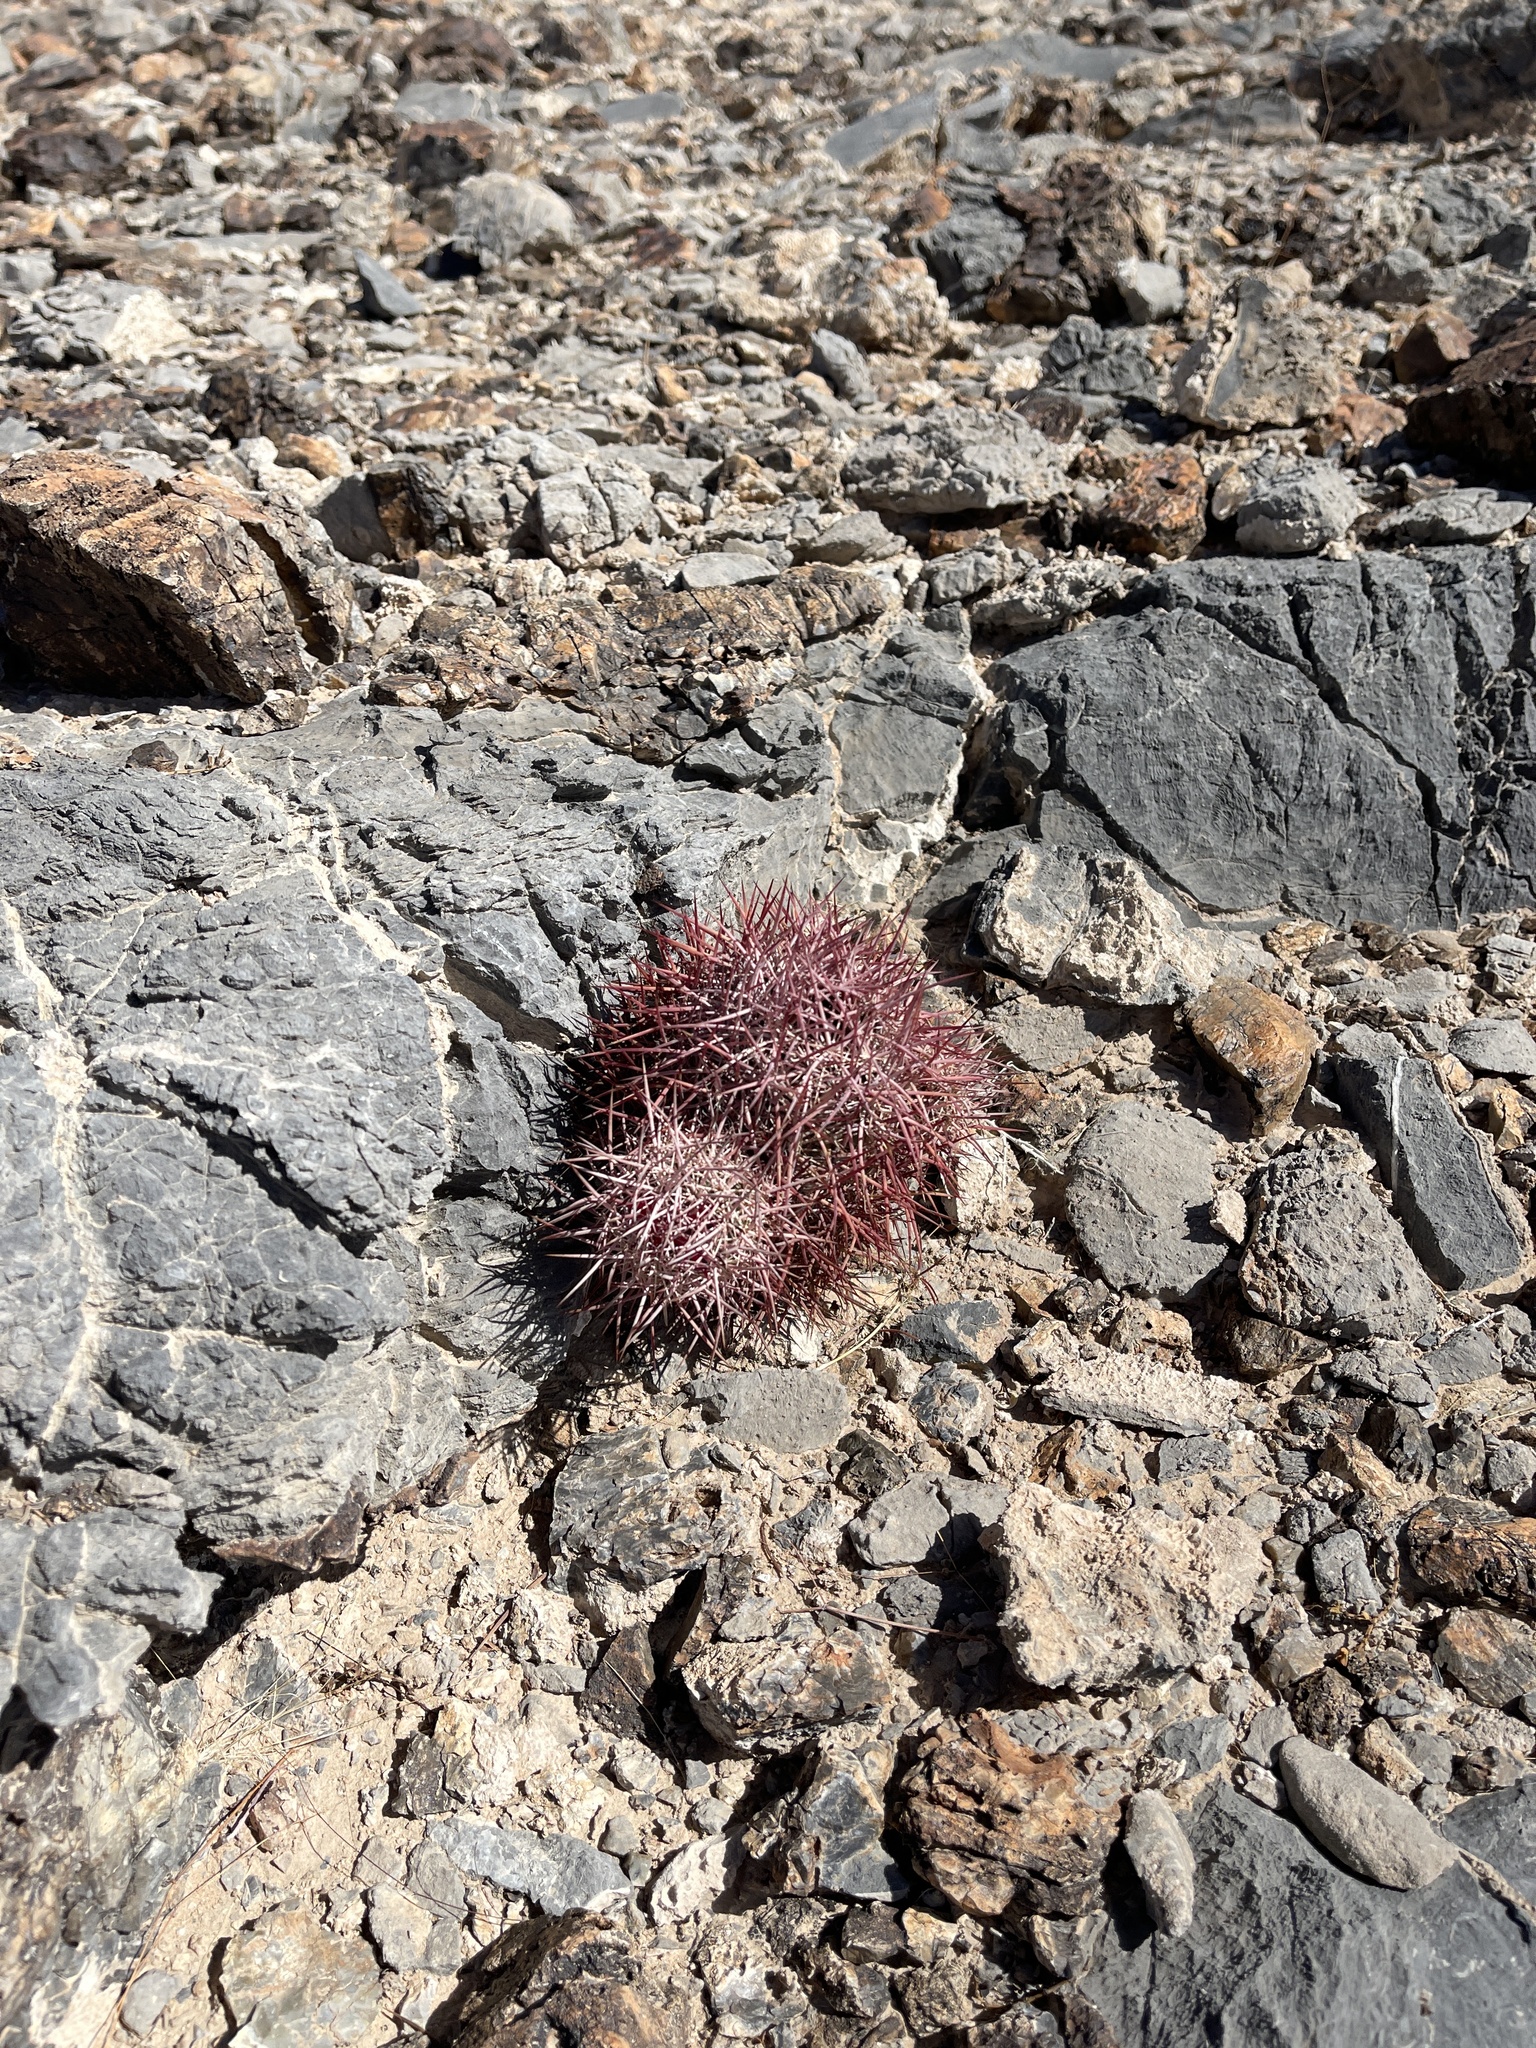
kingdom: Plantae
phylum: Tracheophyta
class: Magnoliopsida
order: Caryophyllales
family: Cactaceae
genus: Sclerocactus
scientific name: Sclerocactus johnsonii
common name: Eight-spine fishhook cactus
